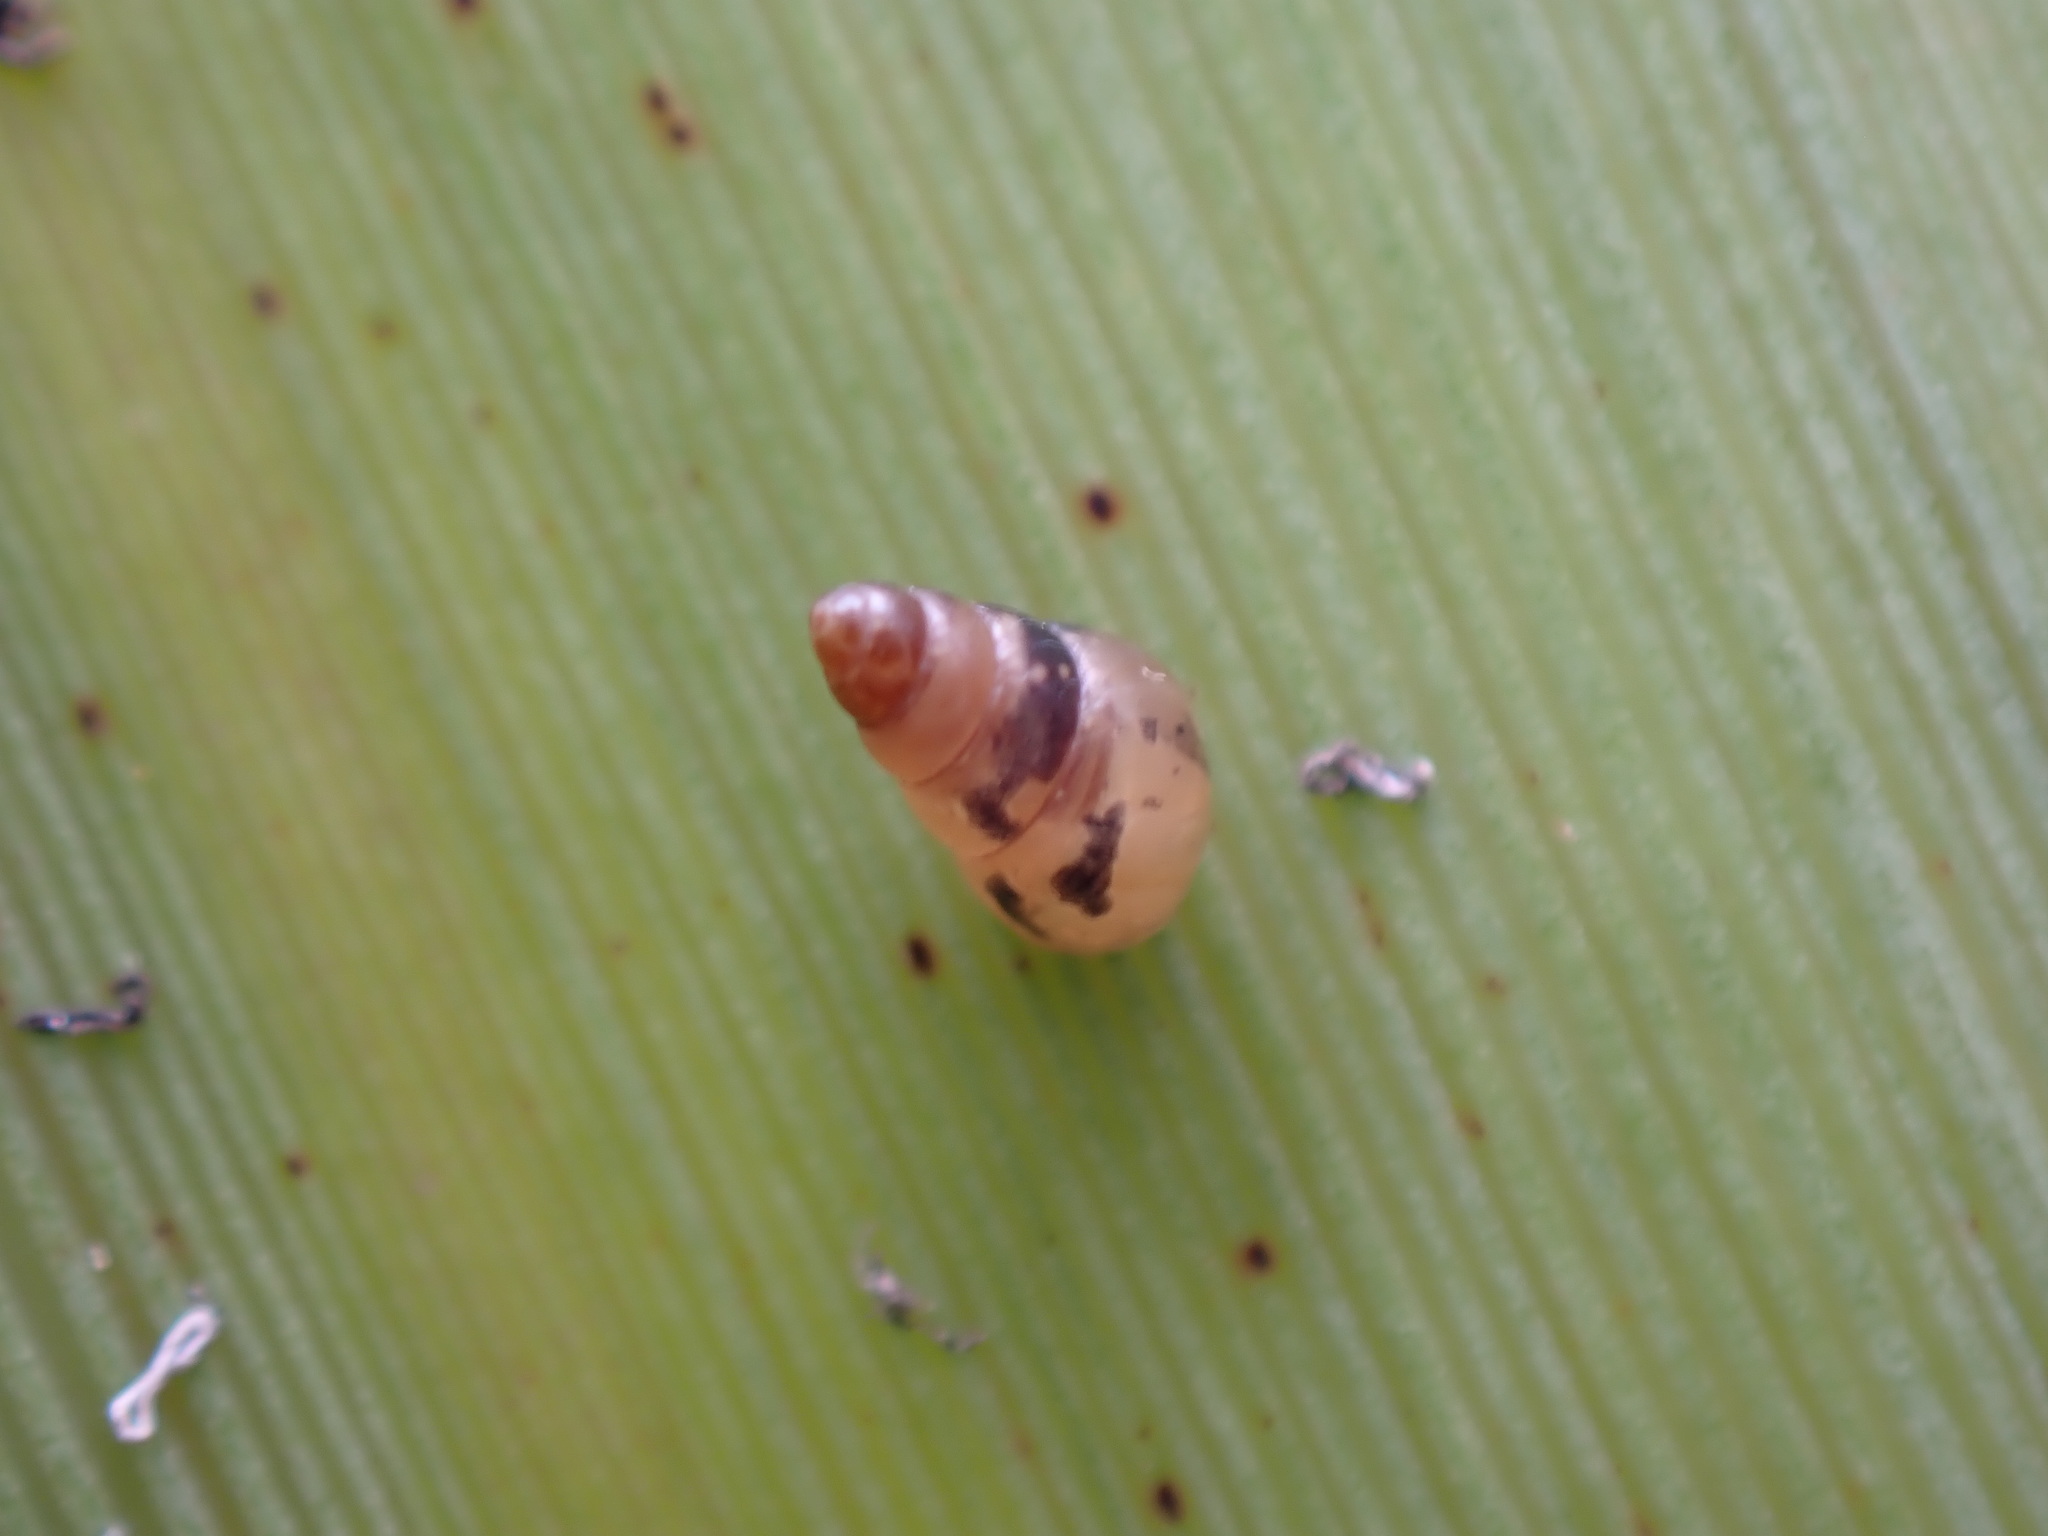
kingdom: Animalia
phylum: Mollusca
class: Gastropoda
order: Stylommatophora
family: Achatinellidae
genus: Tornatellides
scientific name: Tornatellides subperforatus
